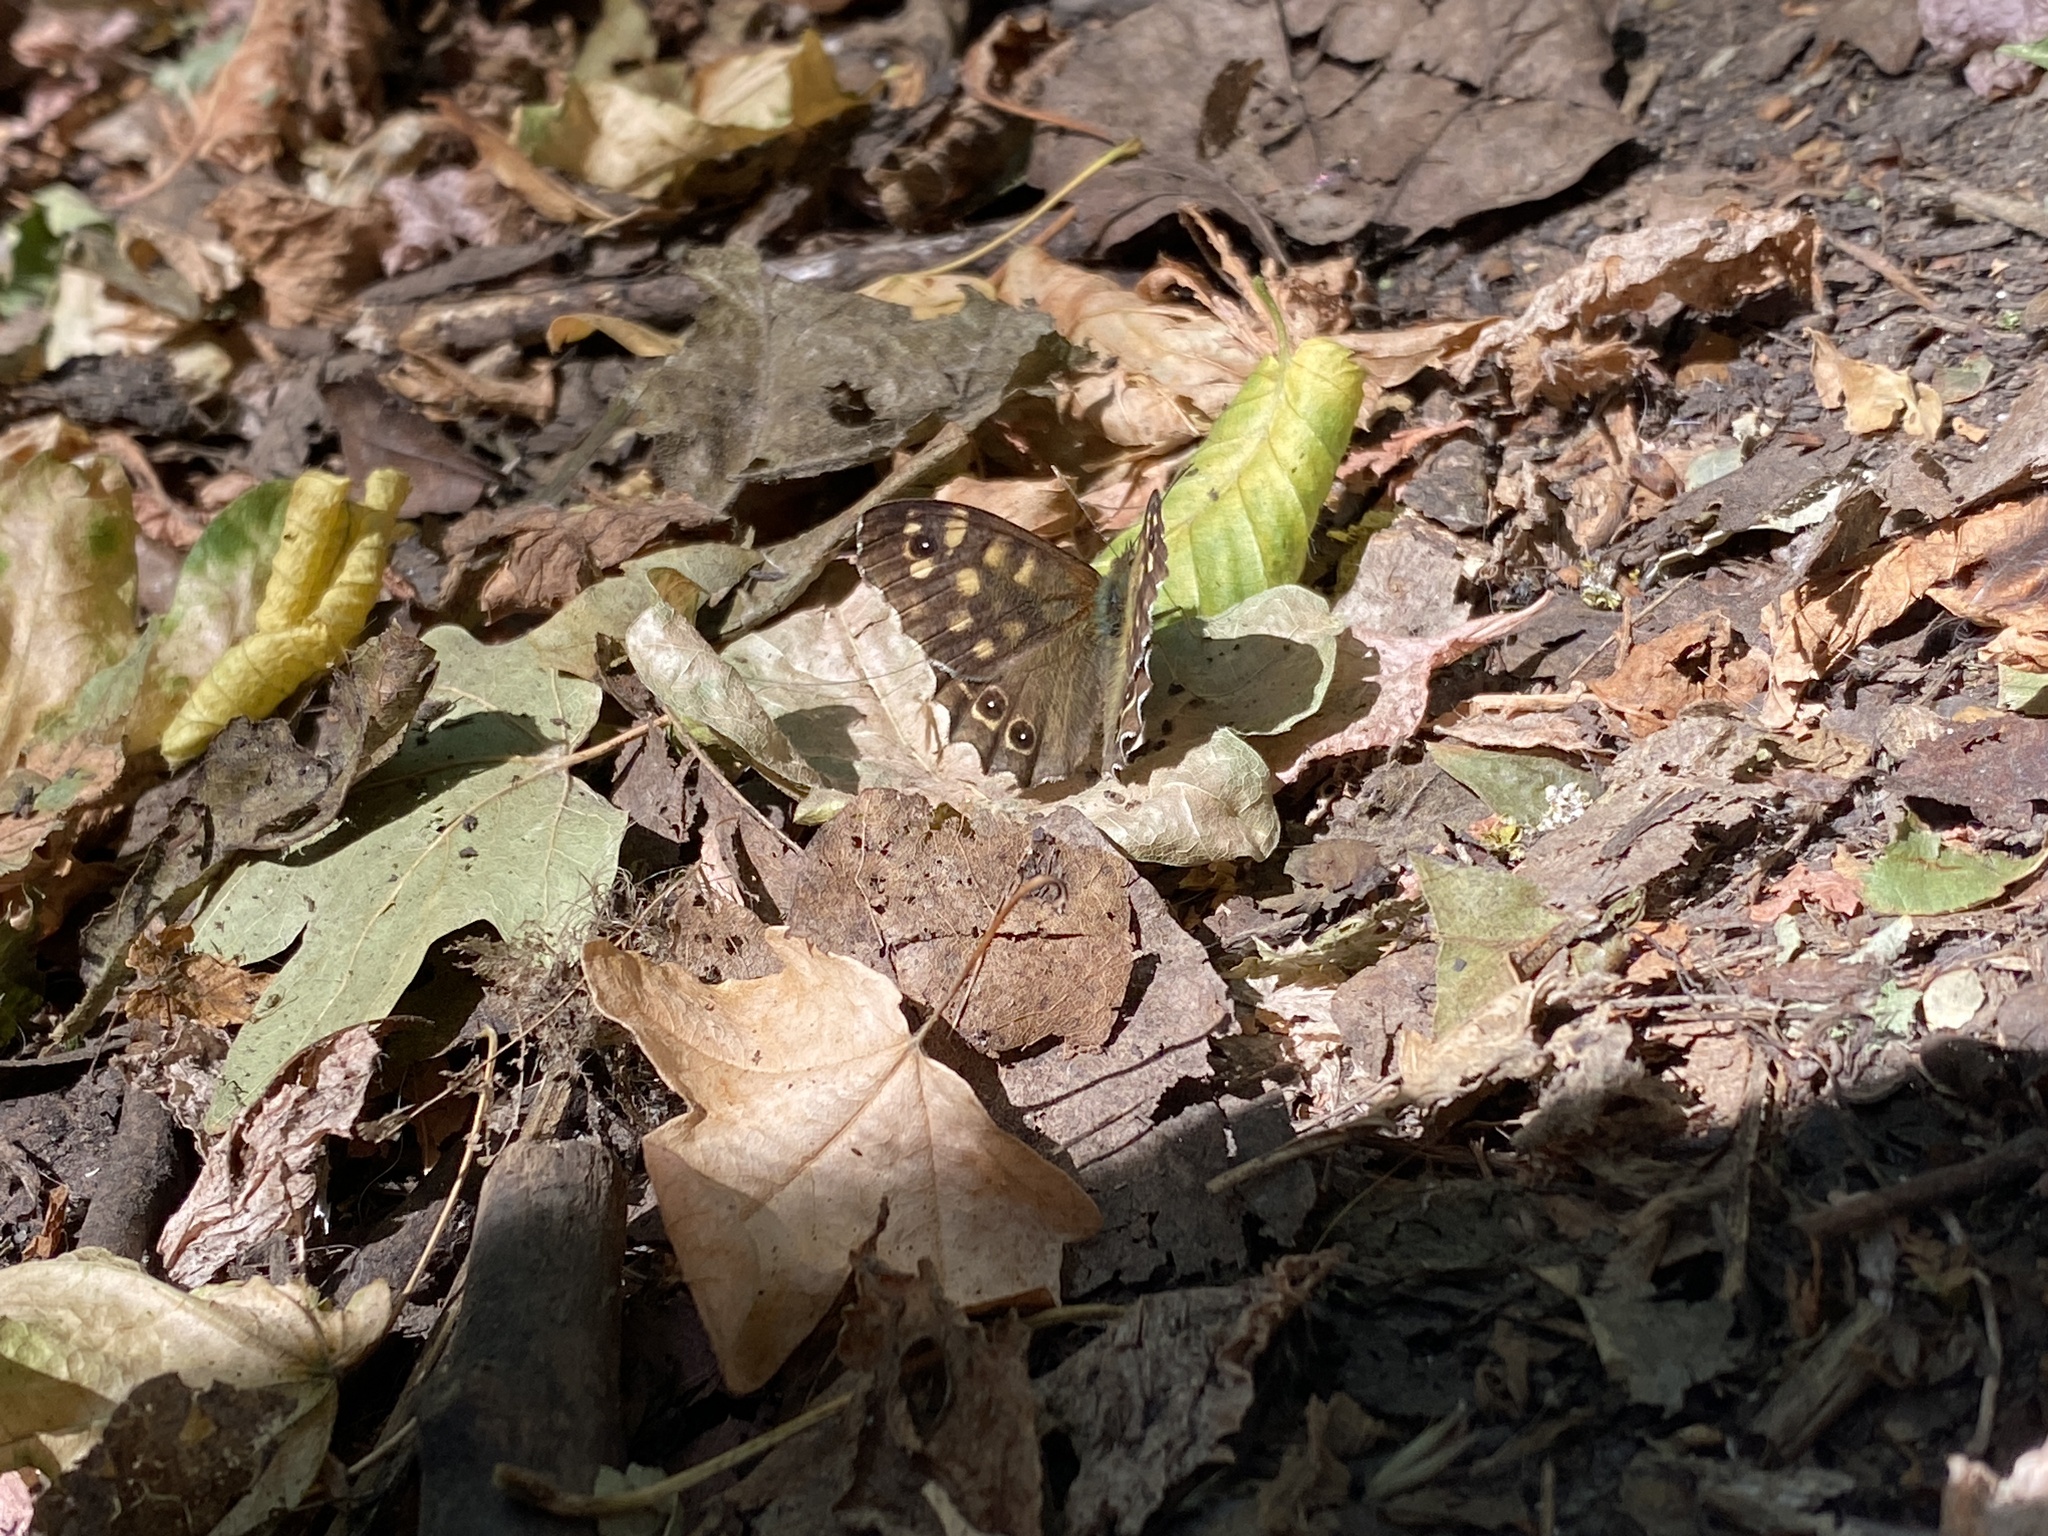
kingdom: Animalia
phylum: Arthropoda
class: Insecta
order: Lepidoptera
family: Nymphalidae
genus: Pararge
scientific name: Pararge aegeria
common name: Speckled wood
